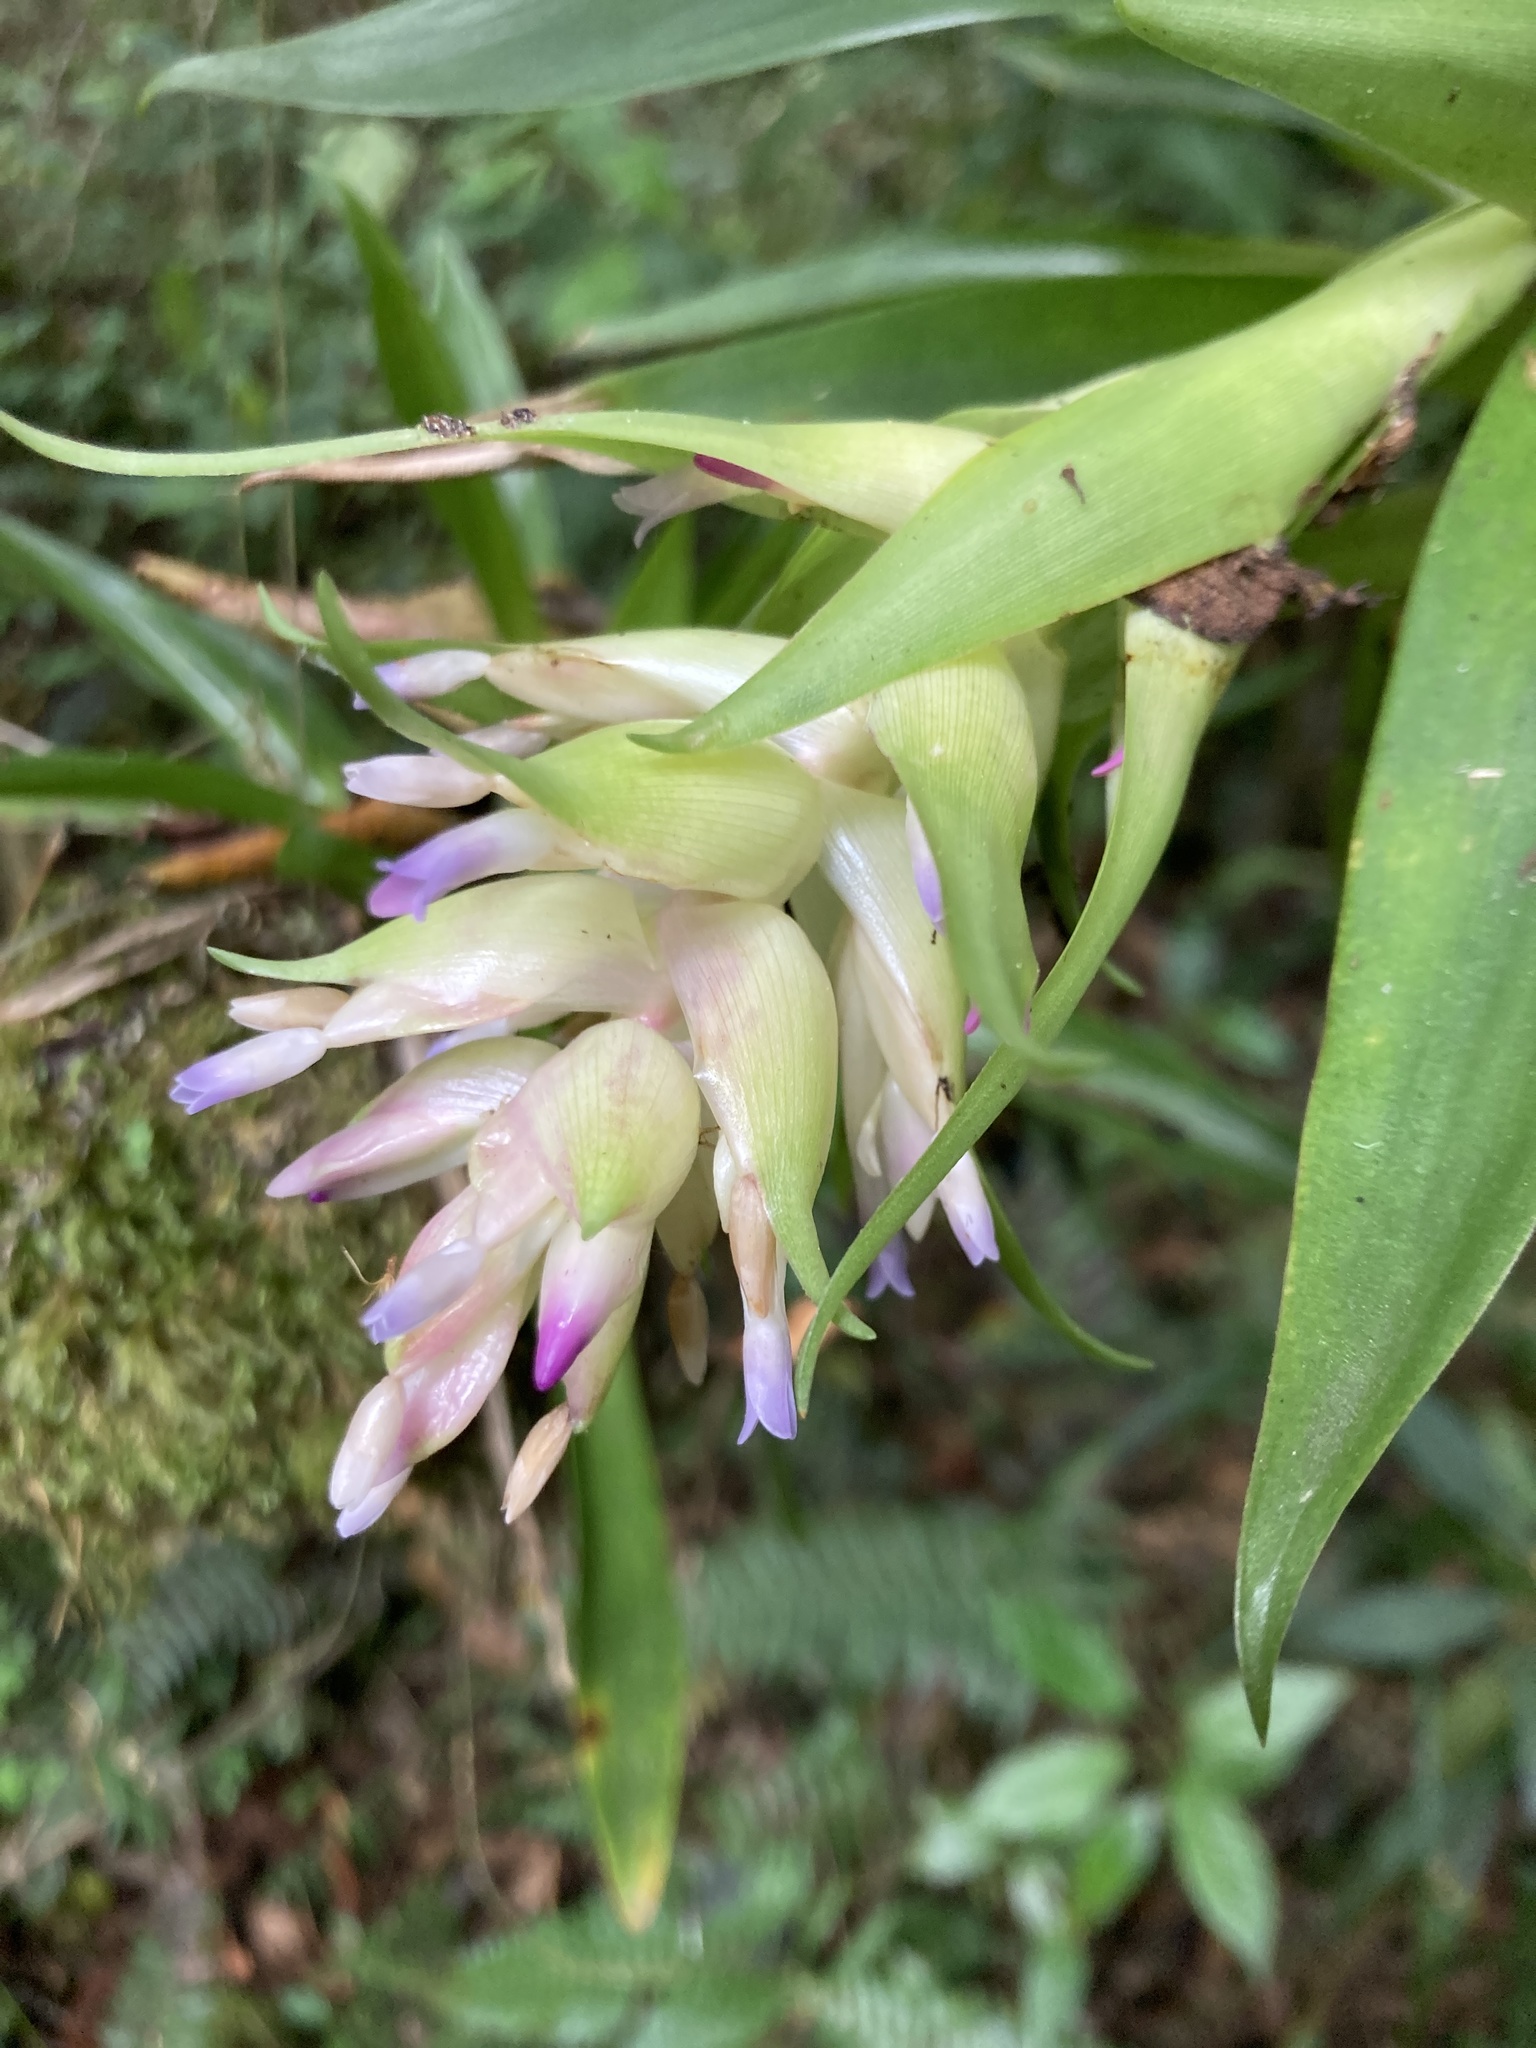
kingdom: Plantae
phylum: Tracheophyta
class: Liliopsida
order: Poales
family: Bromeliaceae
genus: Tillandsia
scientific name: Tillandsia biflora
